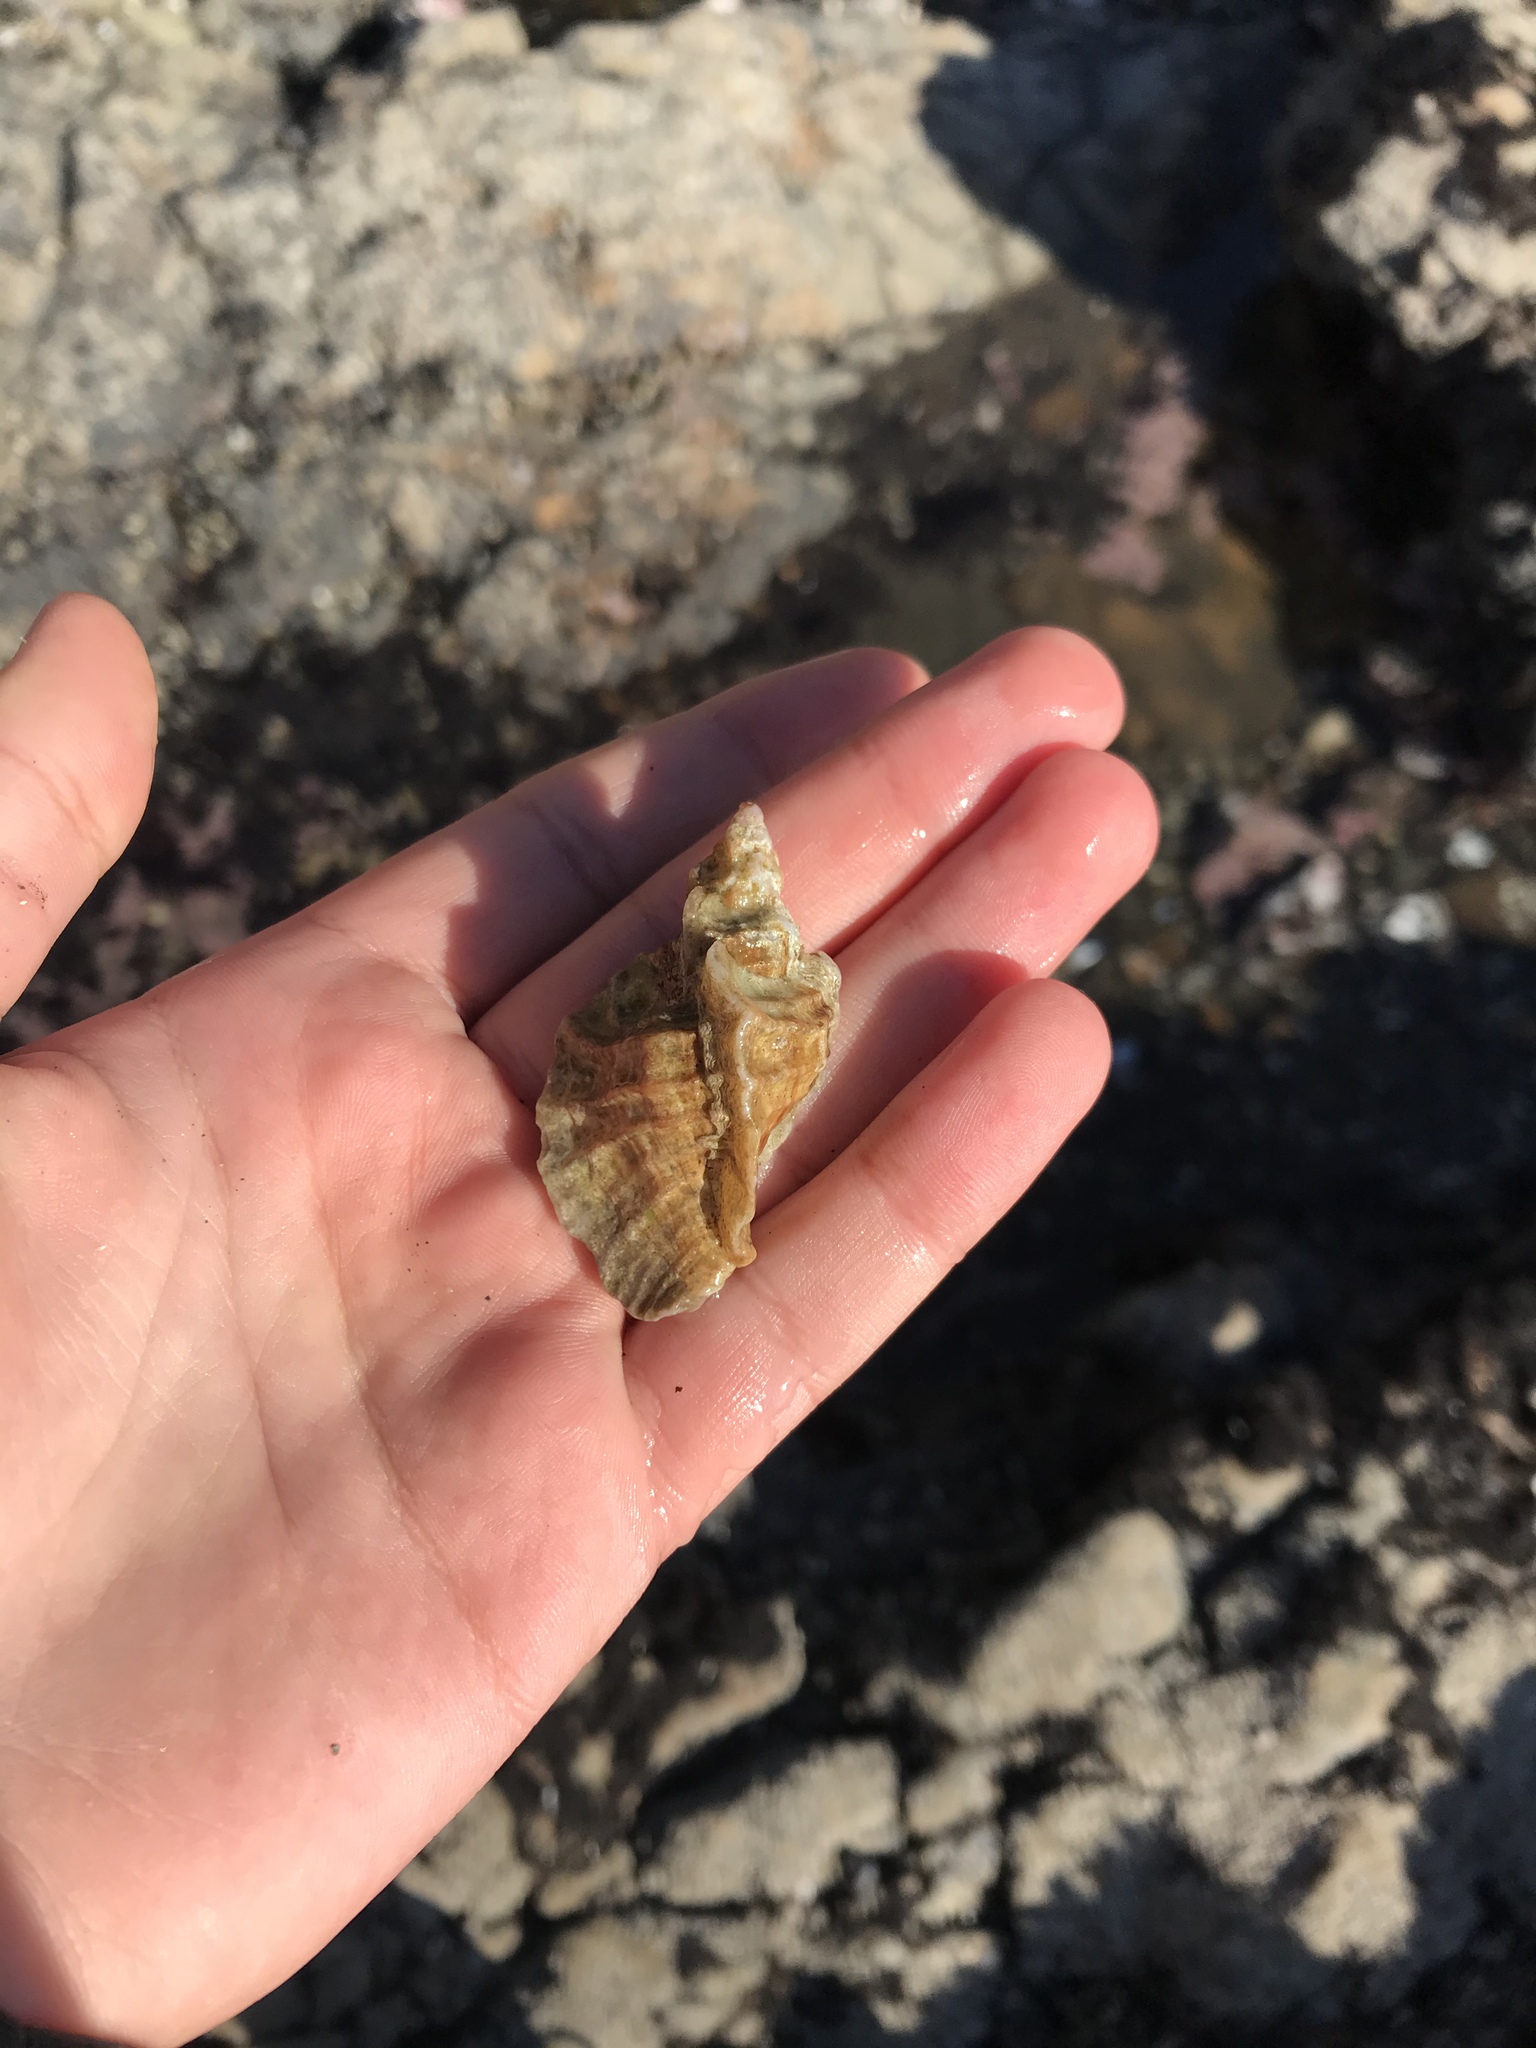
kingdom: Animalia
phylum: Mollusca
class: Gastropoda
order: Neogastropoda
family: Muricidae
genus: Ceratostoma
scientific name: Ceratostoma foliatum
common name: Foliate thorn purpura
